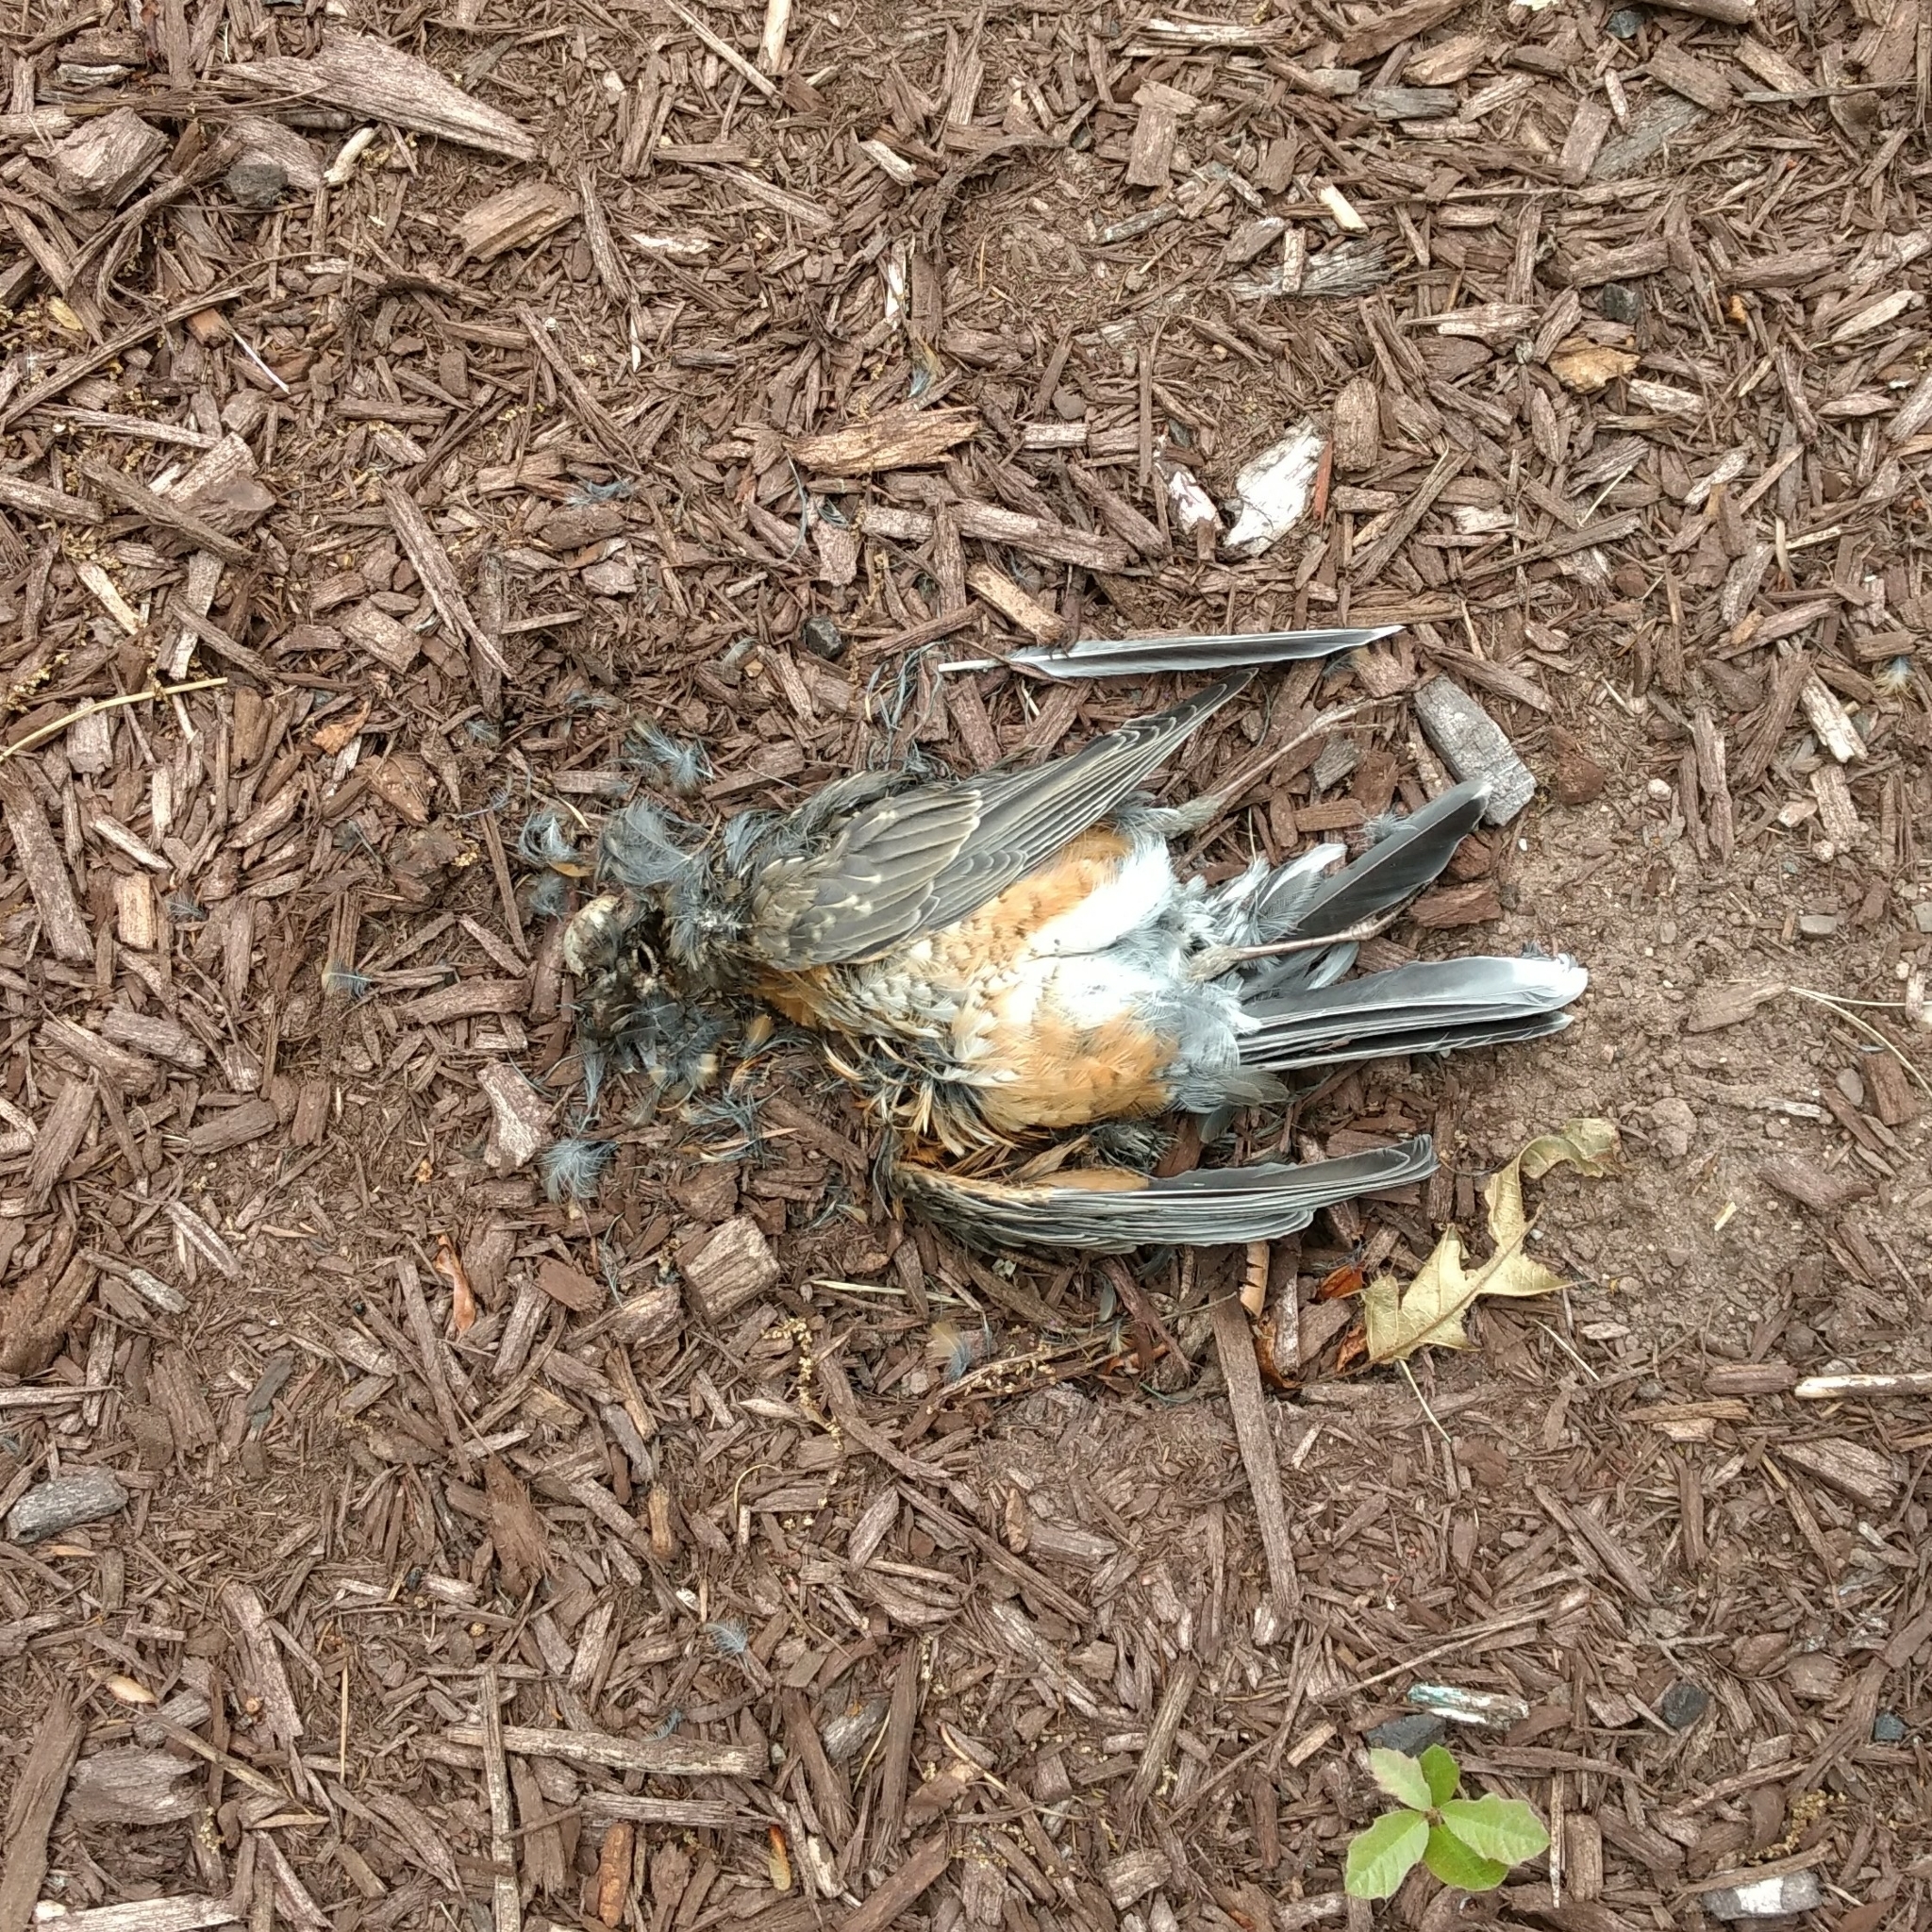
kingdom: Animalia
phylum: Chordata
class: Aves
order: Passeriformes
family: Turdidae
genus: Turdus
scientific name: Turdus migratorius
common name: American robin
